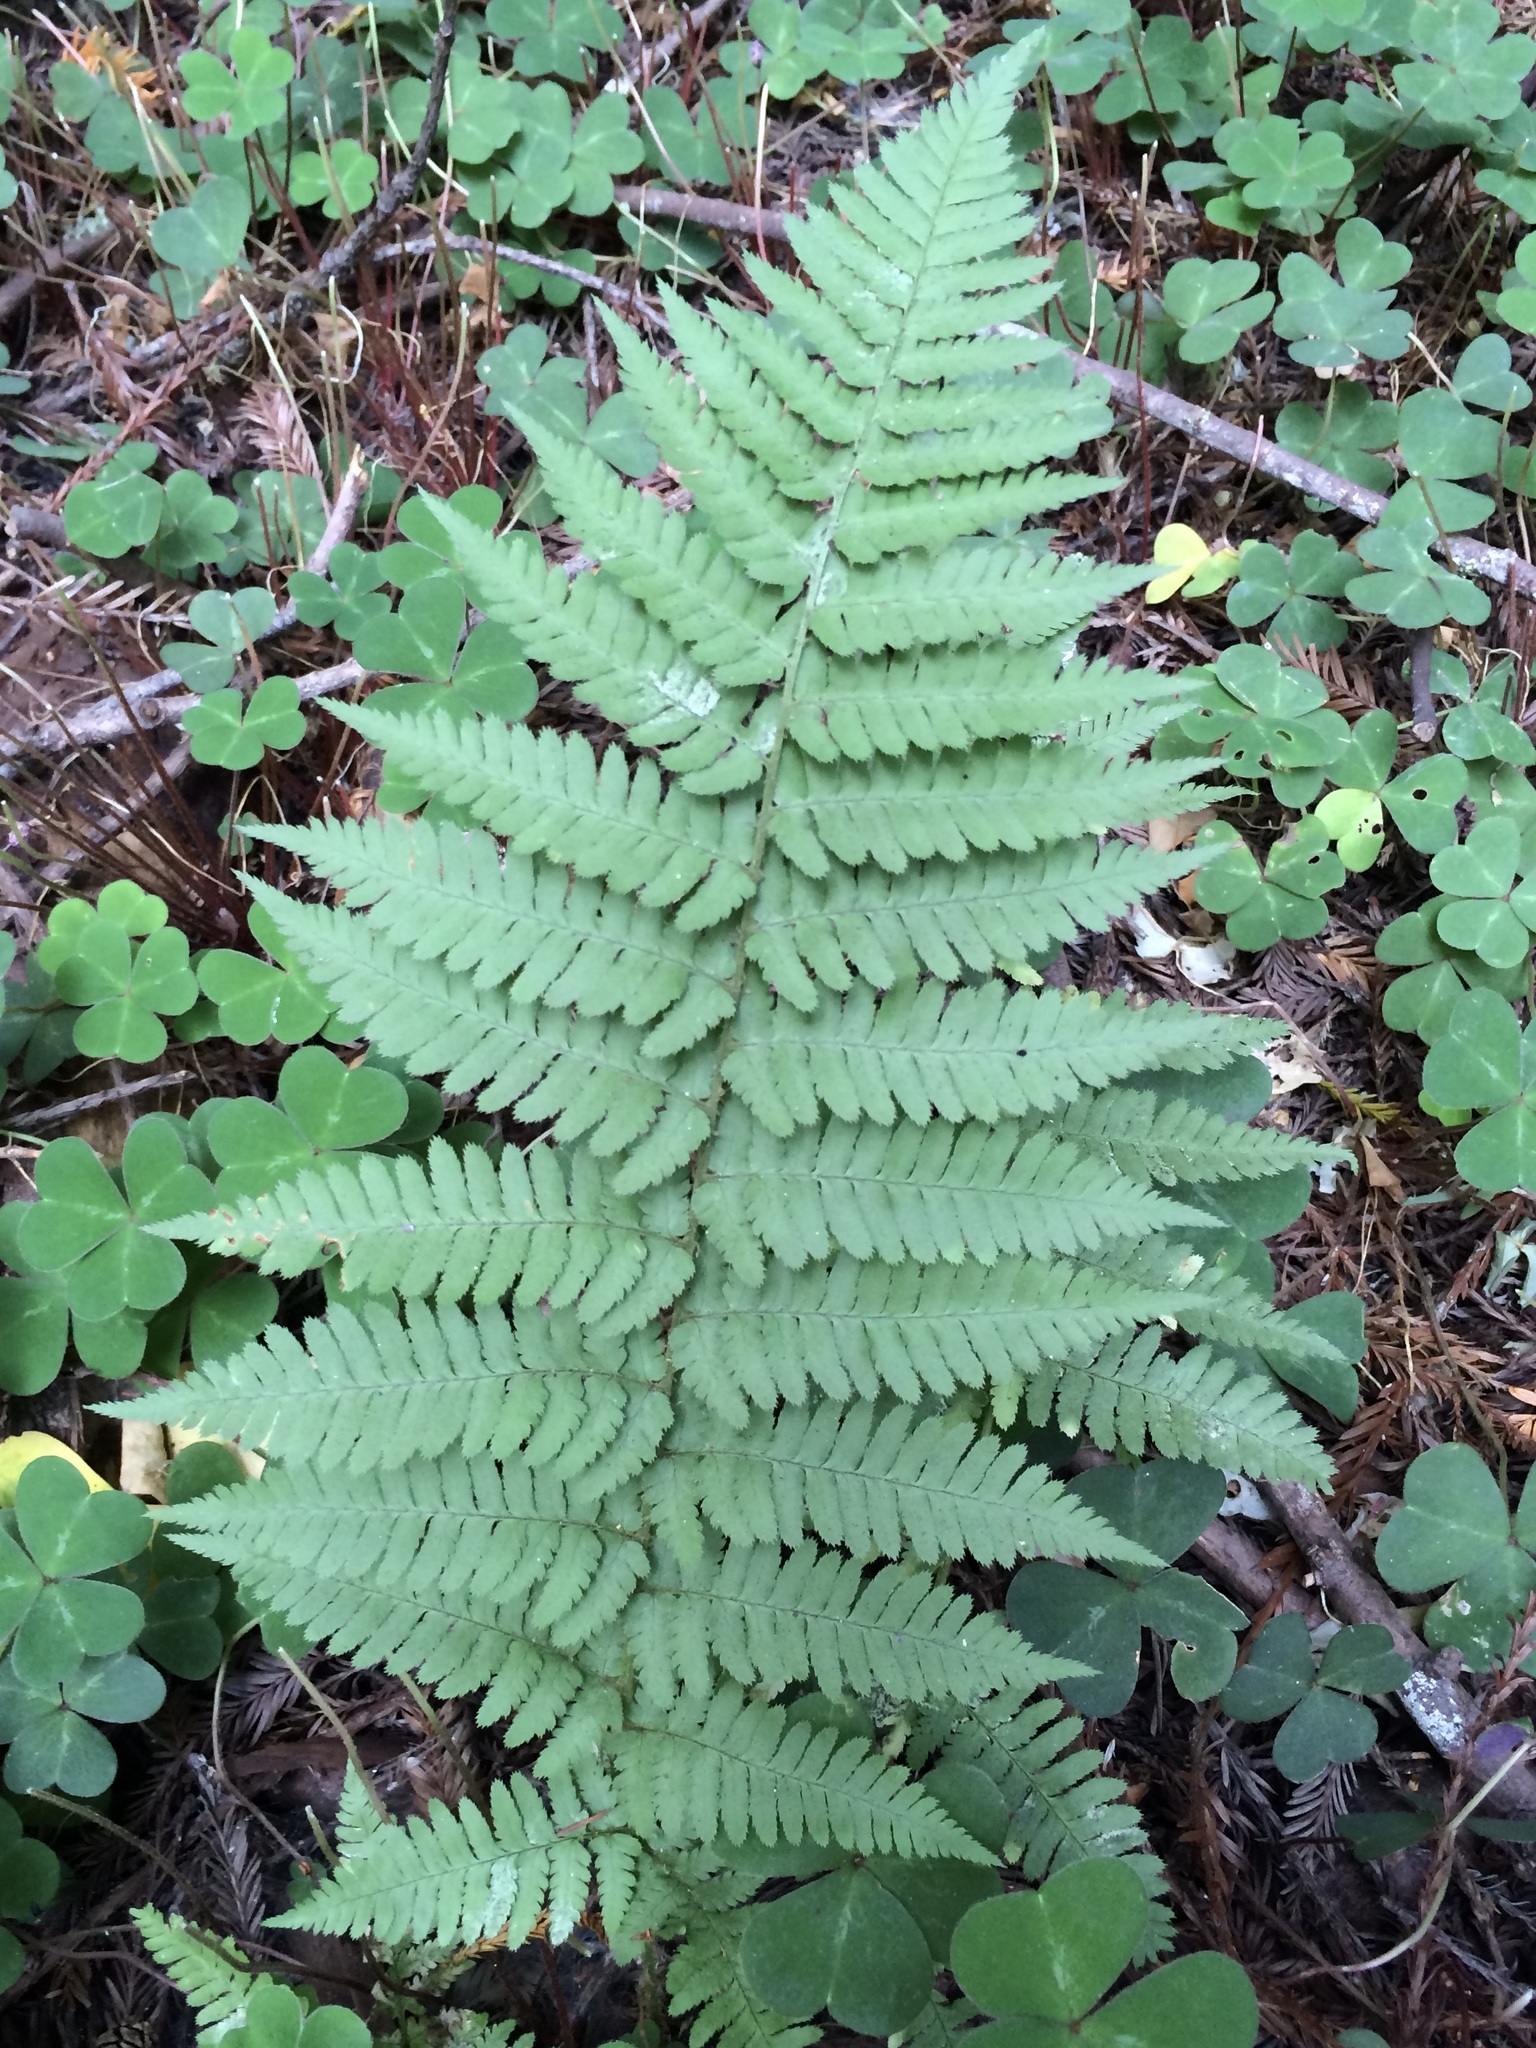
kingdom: Plantae
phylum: Tracheophyta
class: Polypodiopsida
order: Polypodiales
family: Dryopteridaceae
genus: Dryopteris
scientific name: Dryopteris arguta
